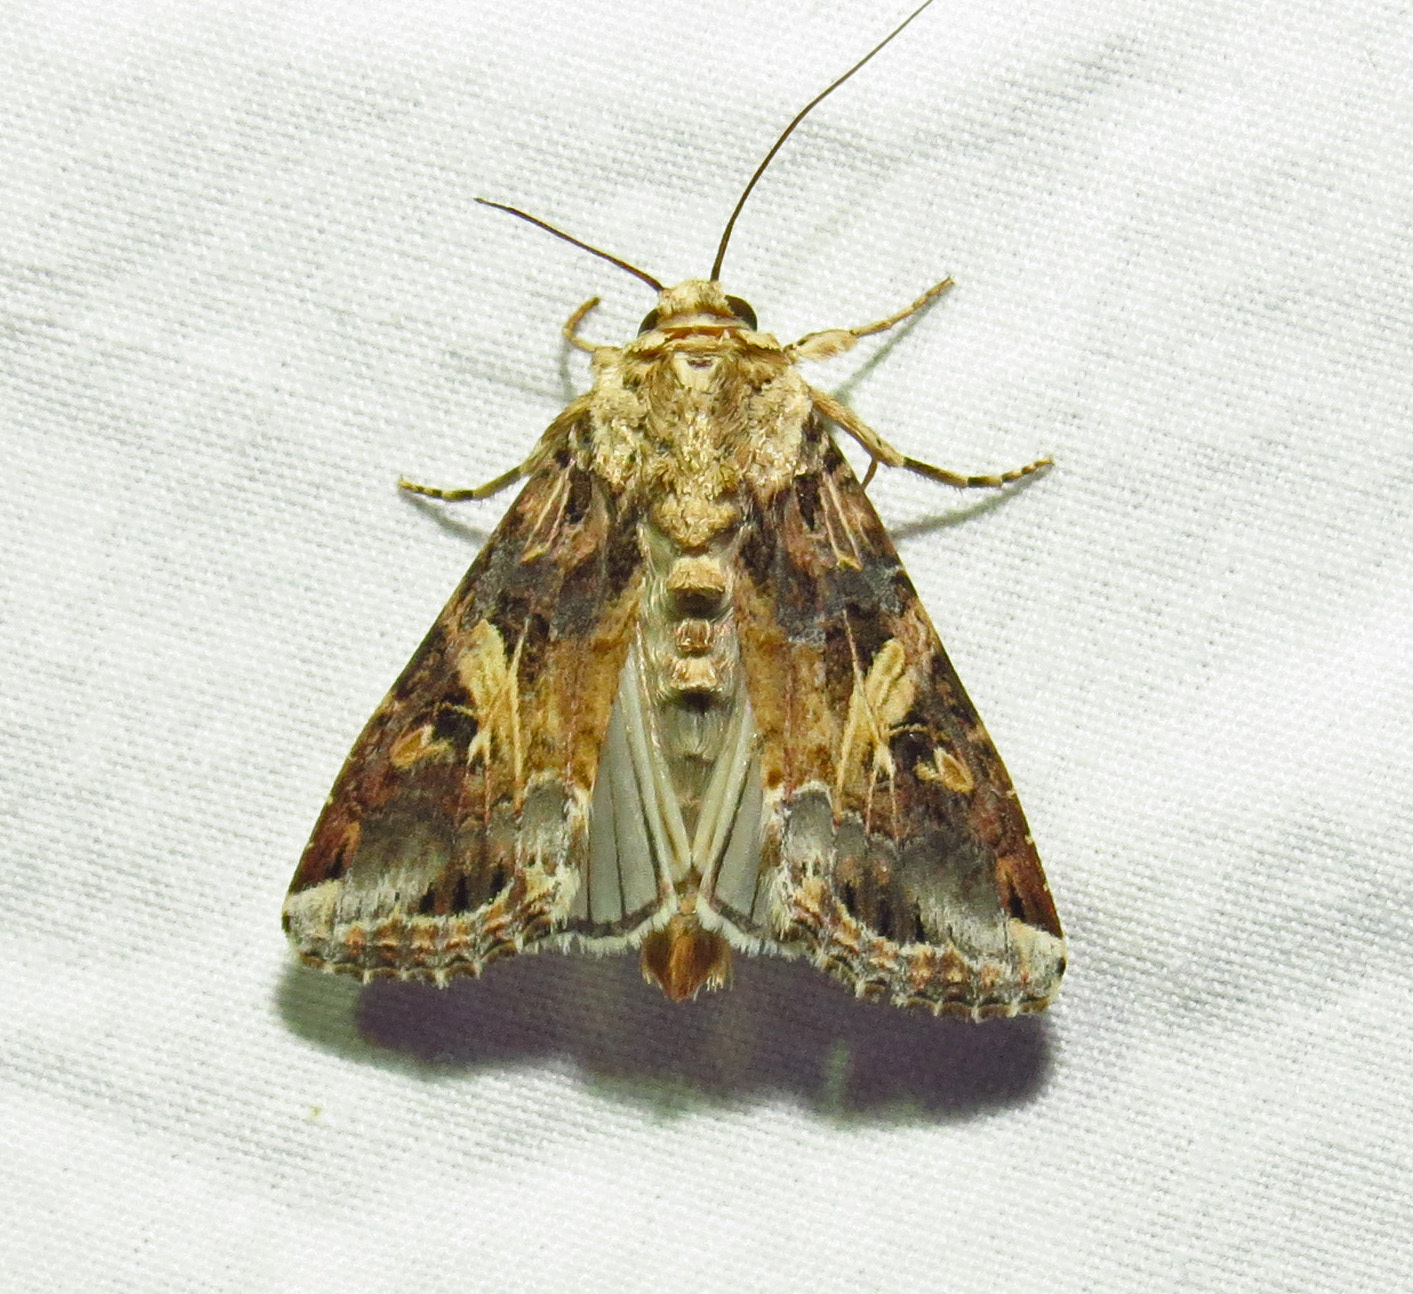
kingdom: Animalia
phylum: Arthropoda
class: Insecta
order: Lepidoptera
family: Noctuidae
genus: Spodoptera
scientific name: Spodoptera ornithogalli
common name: Yellow-striped armyworm
